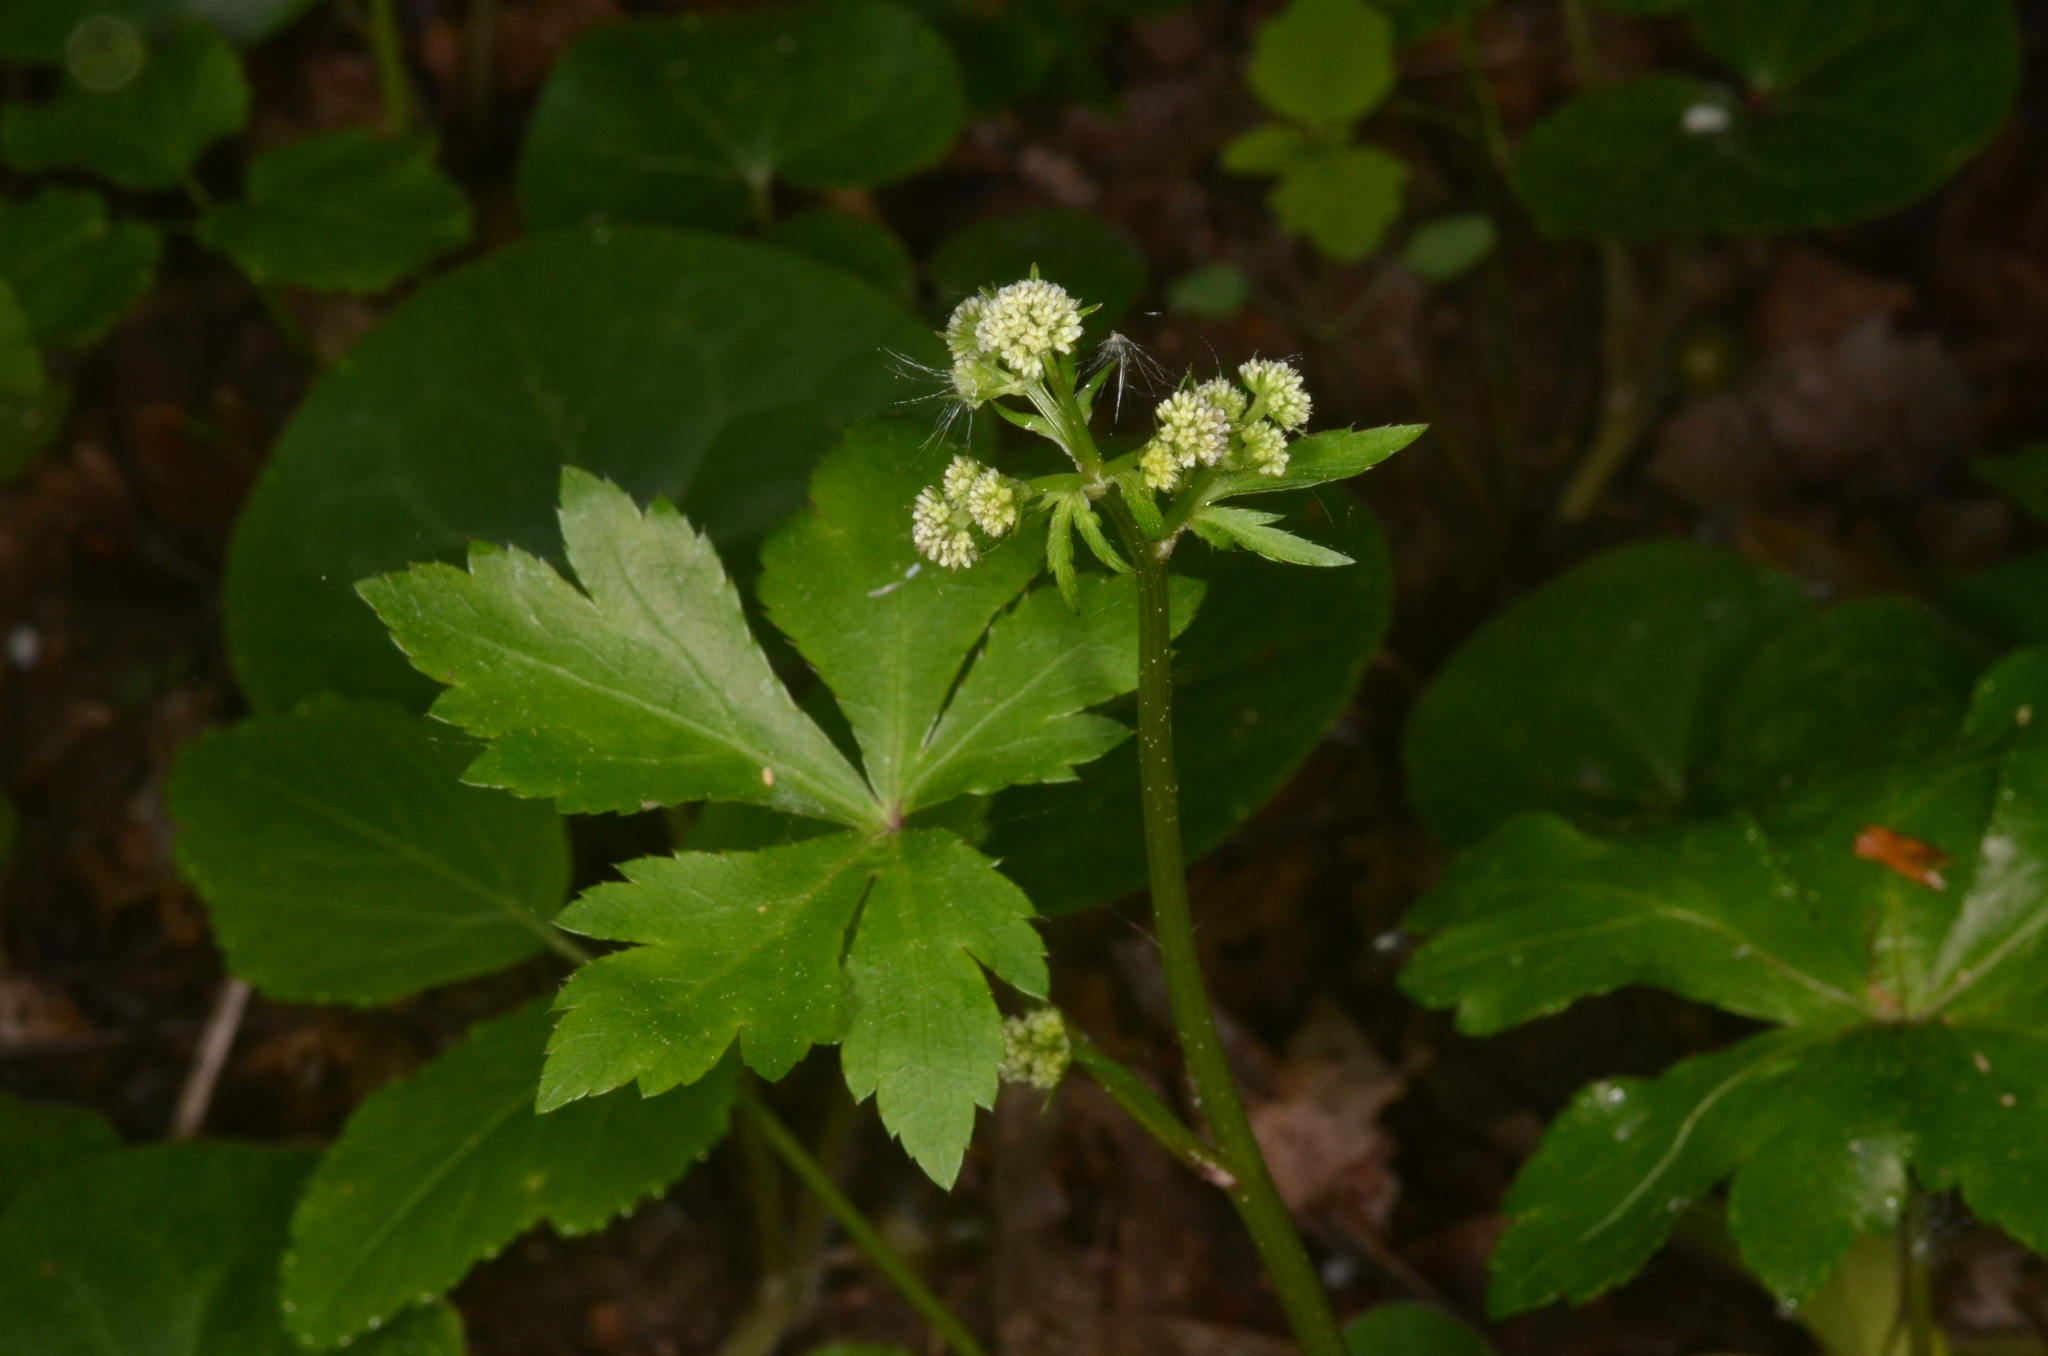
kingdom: Plantae
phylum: Tracheophyta
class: Magnoliopsida
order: Apiales
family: Apiaceae
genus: Sanicula
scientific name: Sanicula europaea
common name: Sanicle
